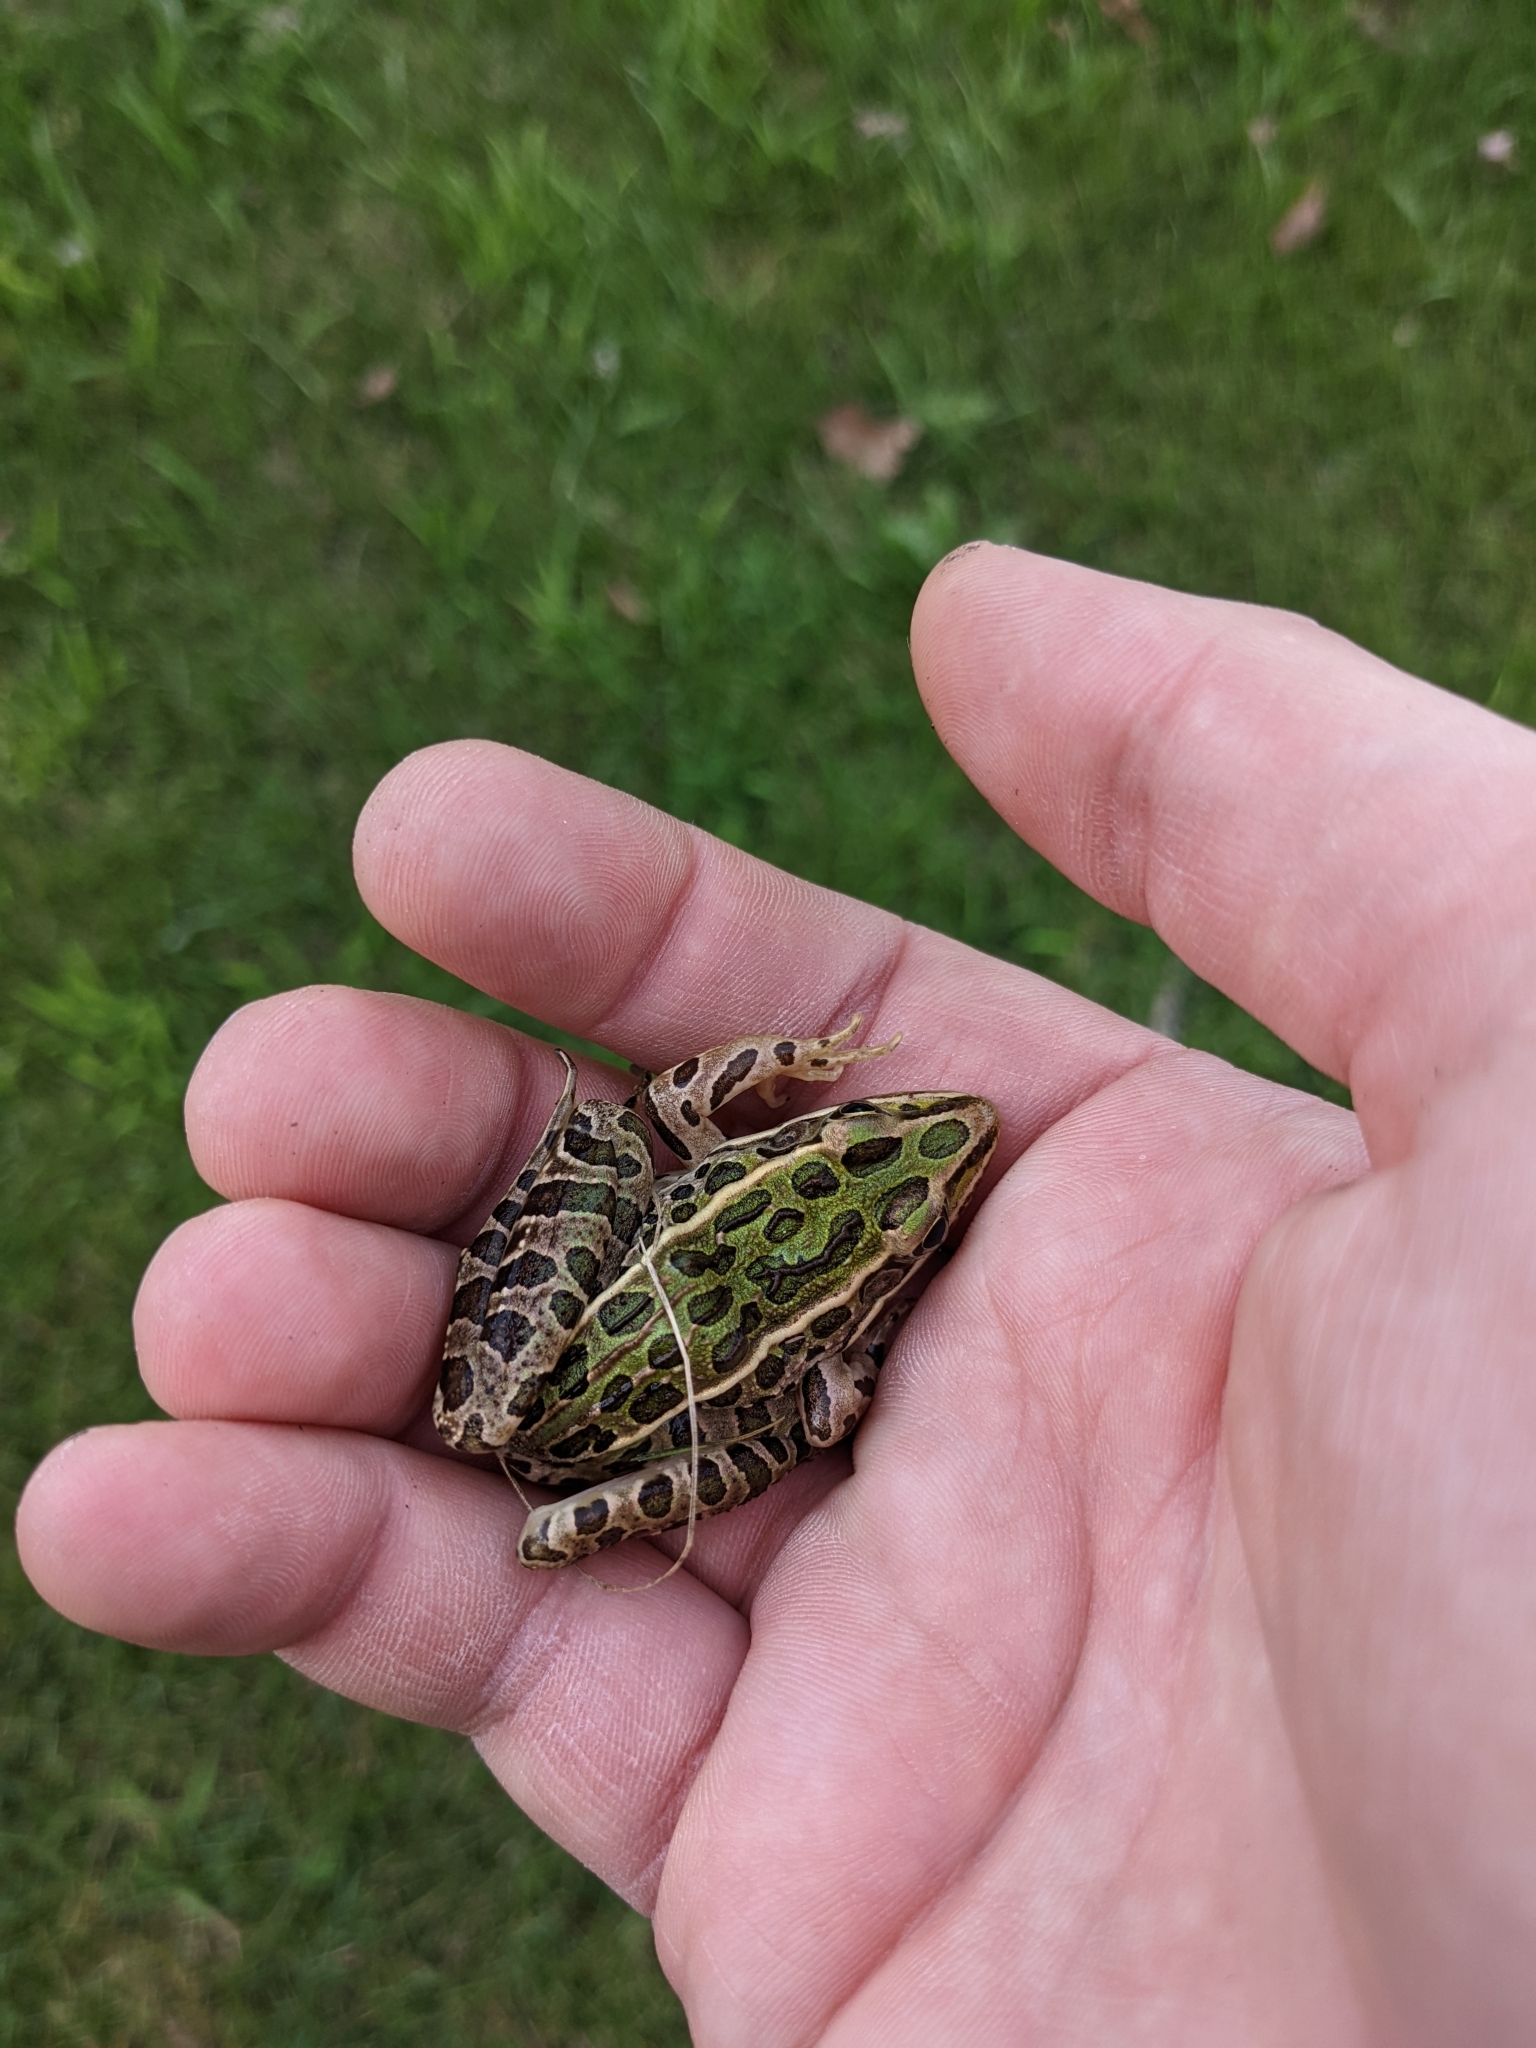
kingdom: Animalia
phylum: Chordata
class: Amphibia
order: Anura
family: Ranidae
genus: Lithobates
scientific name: Lithobates pipiens
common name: Northern leopard frog
